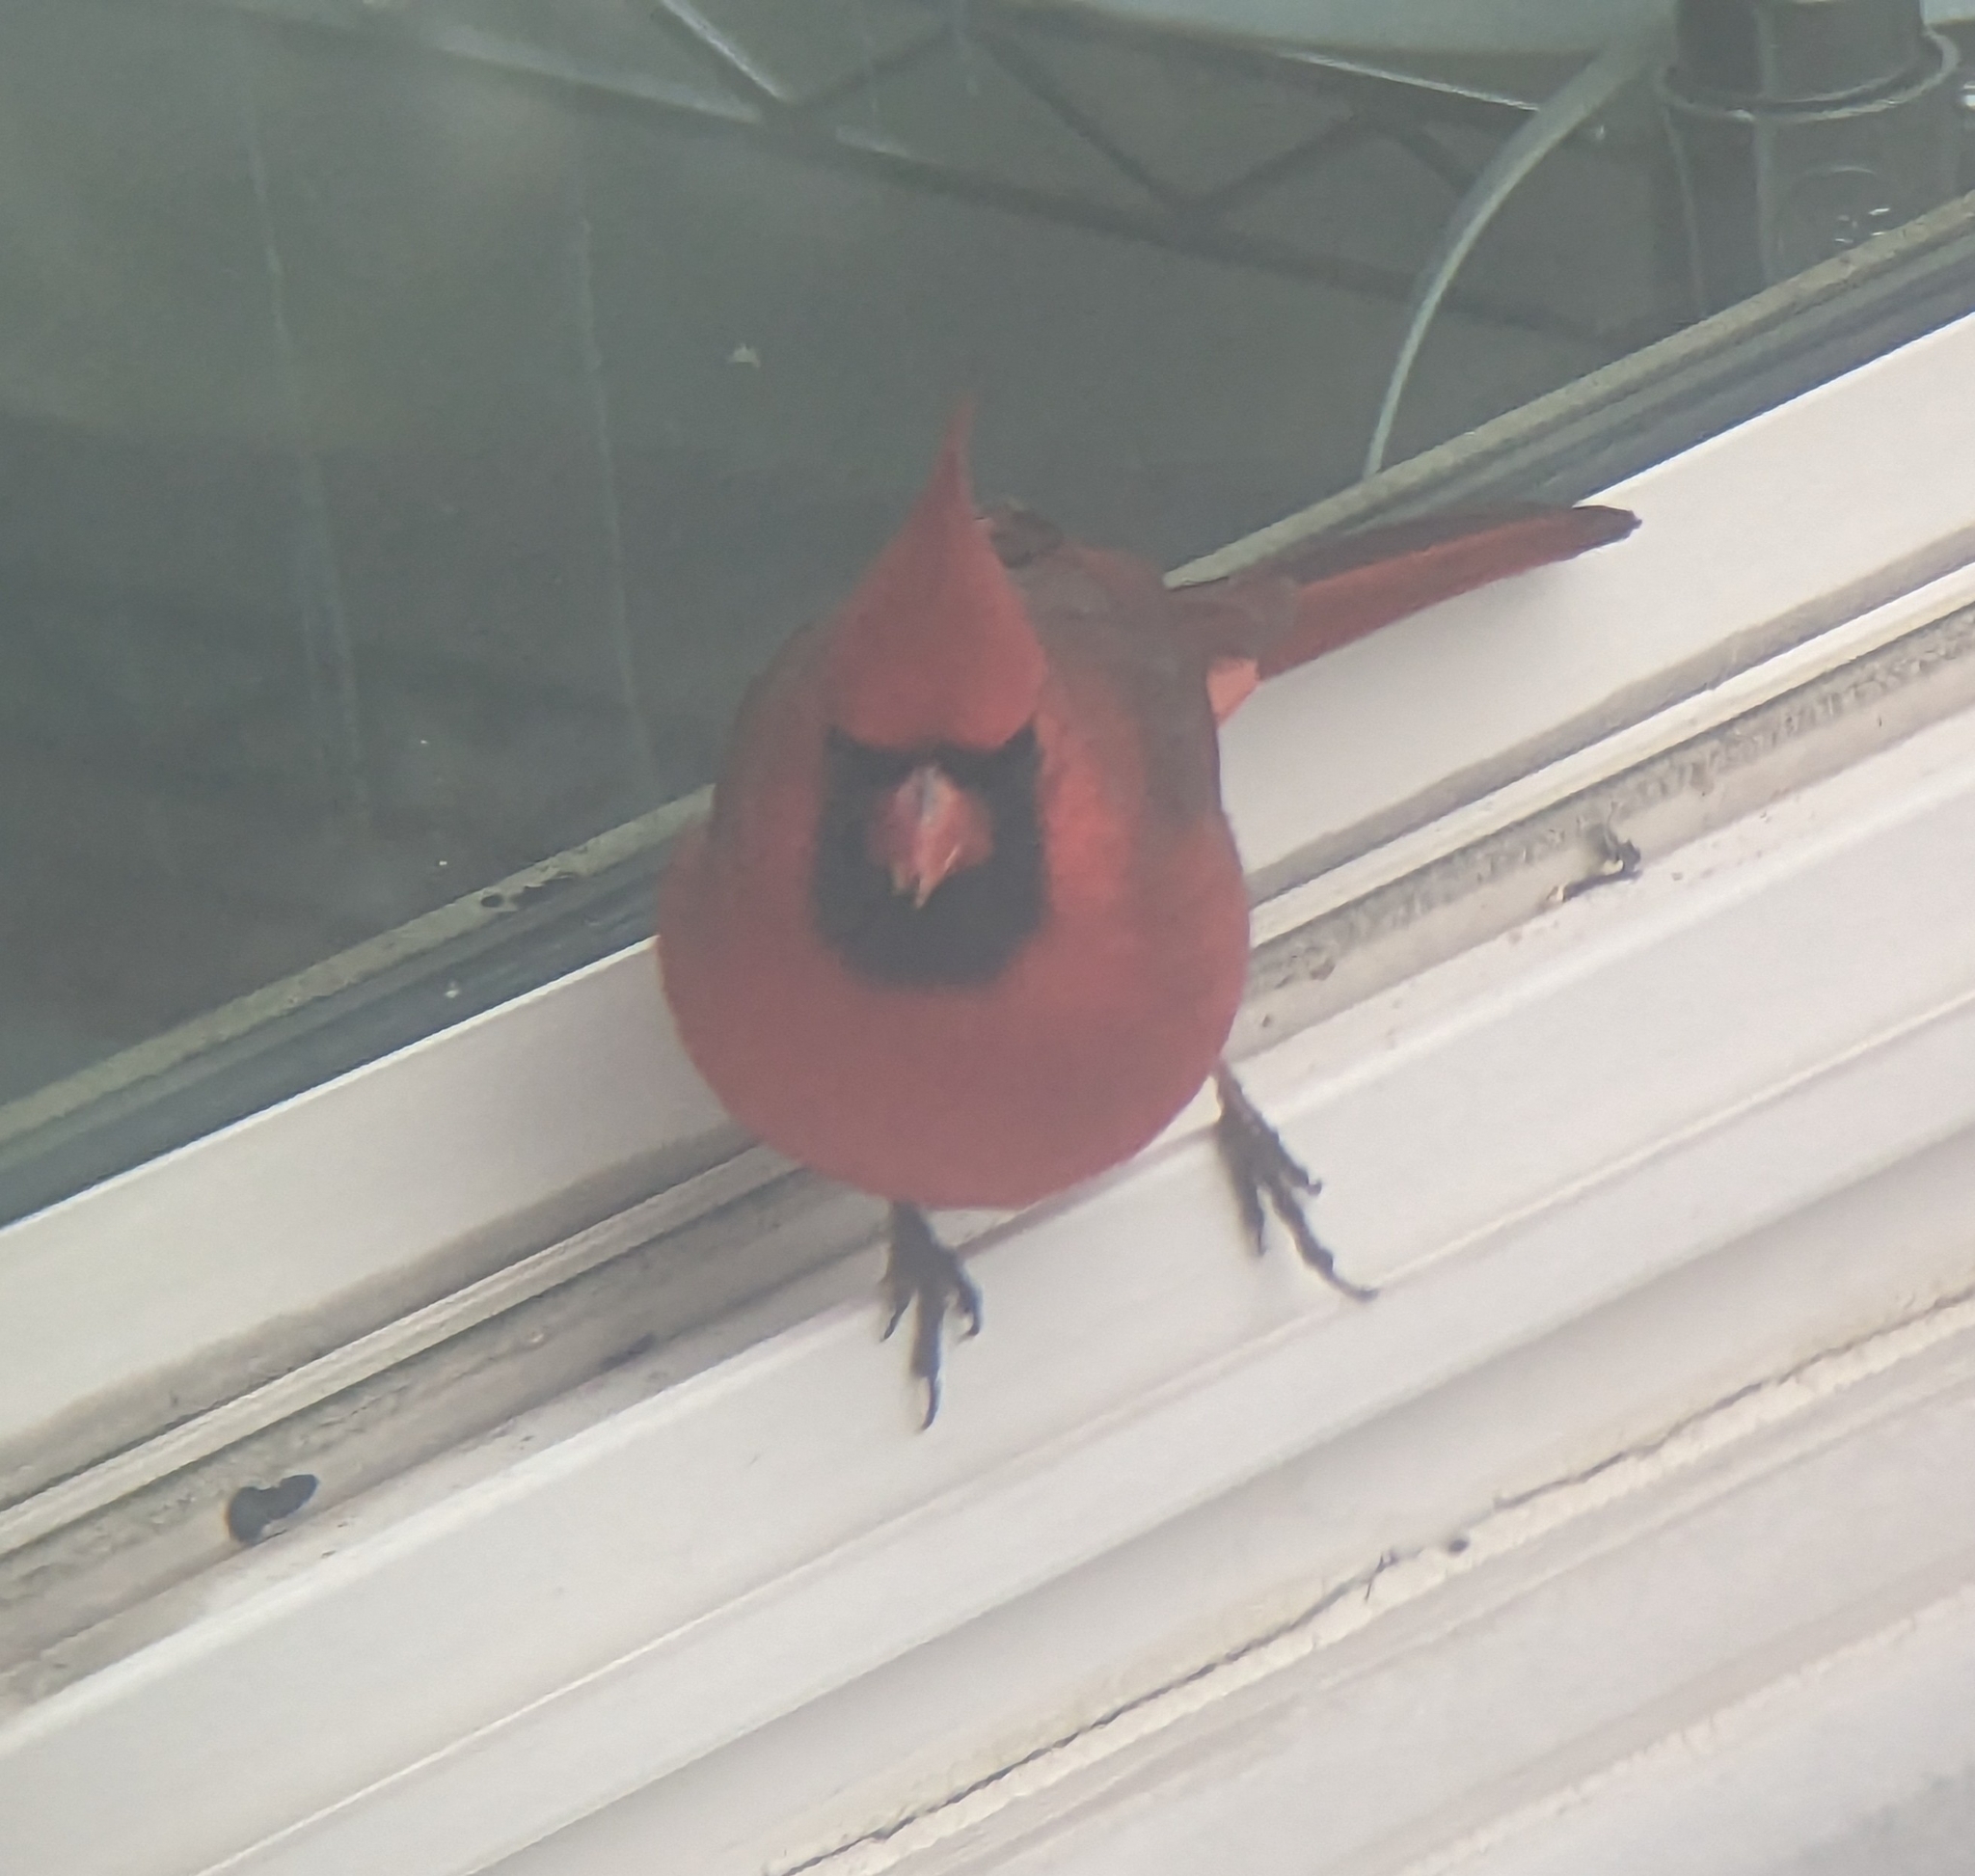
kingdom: Animalia
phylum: Chordata
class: Aves
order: Passeriformes
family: Cardinalidae
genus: Cardinalis
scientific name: Cardinalis cardinalis
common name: Northern cardinal
